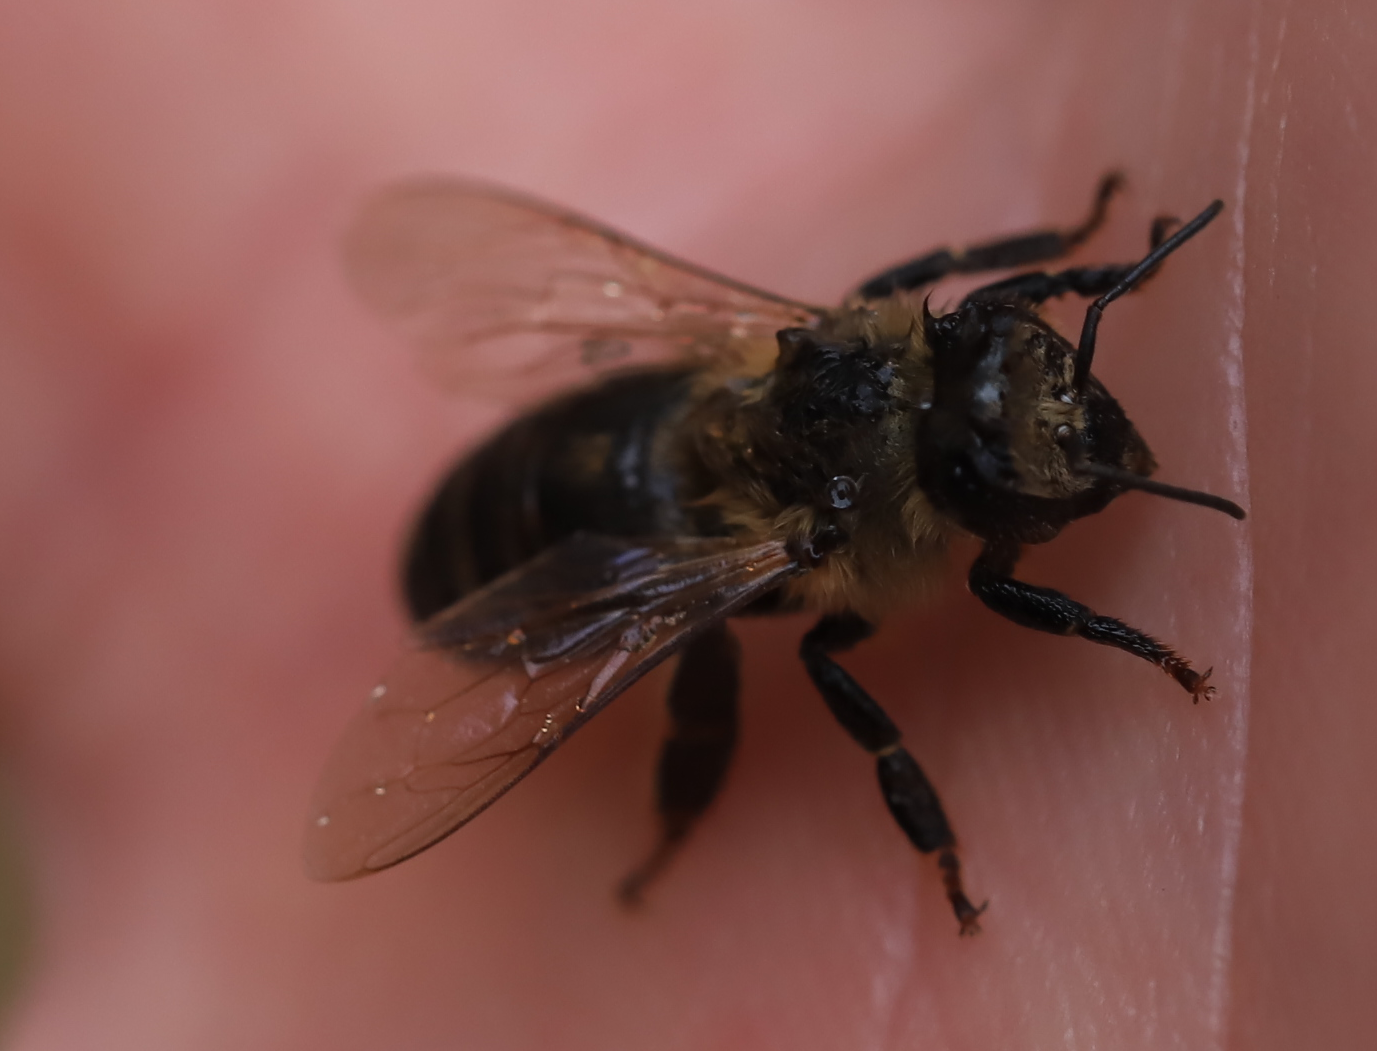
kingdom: Animalia
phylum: Arthropoda
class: Insecta
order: Hymenoptera
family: Apidae
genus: Apis
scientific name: Apis mellifera
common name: Honey bee
